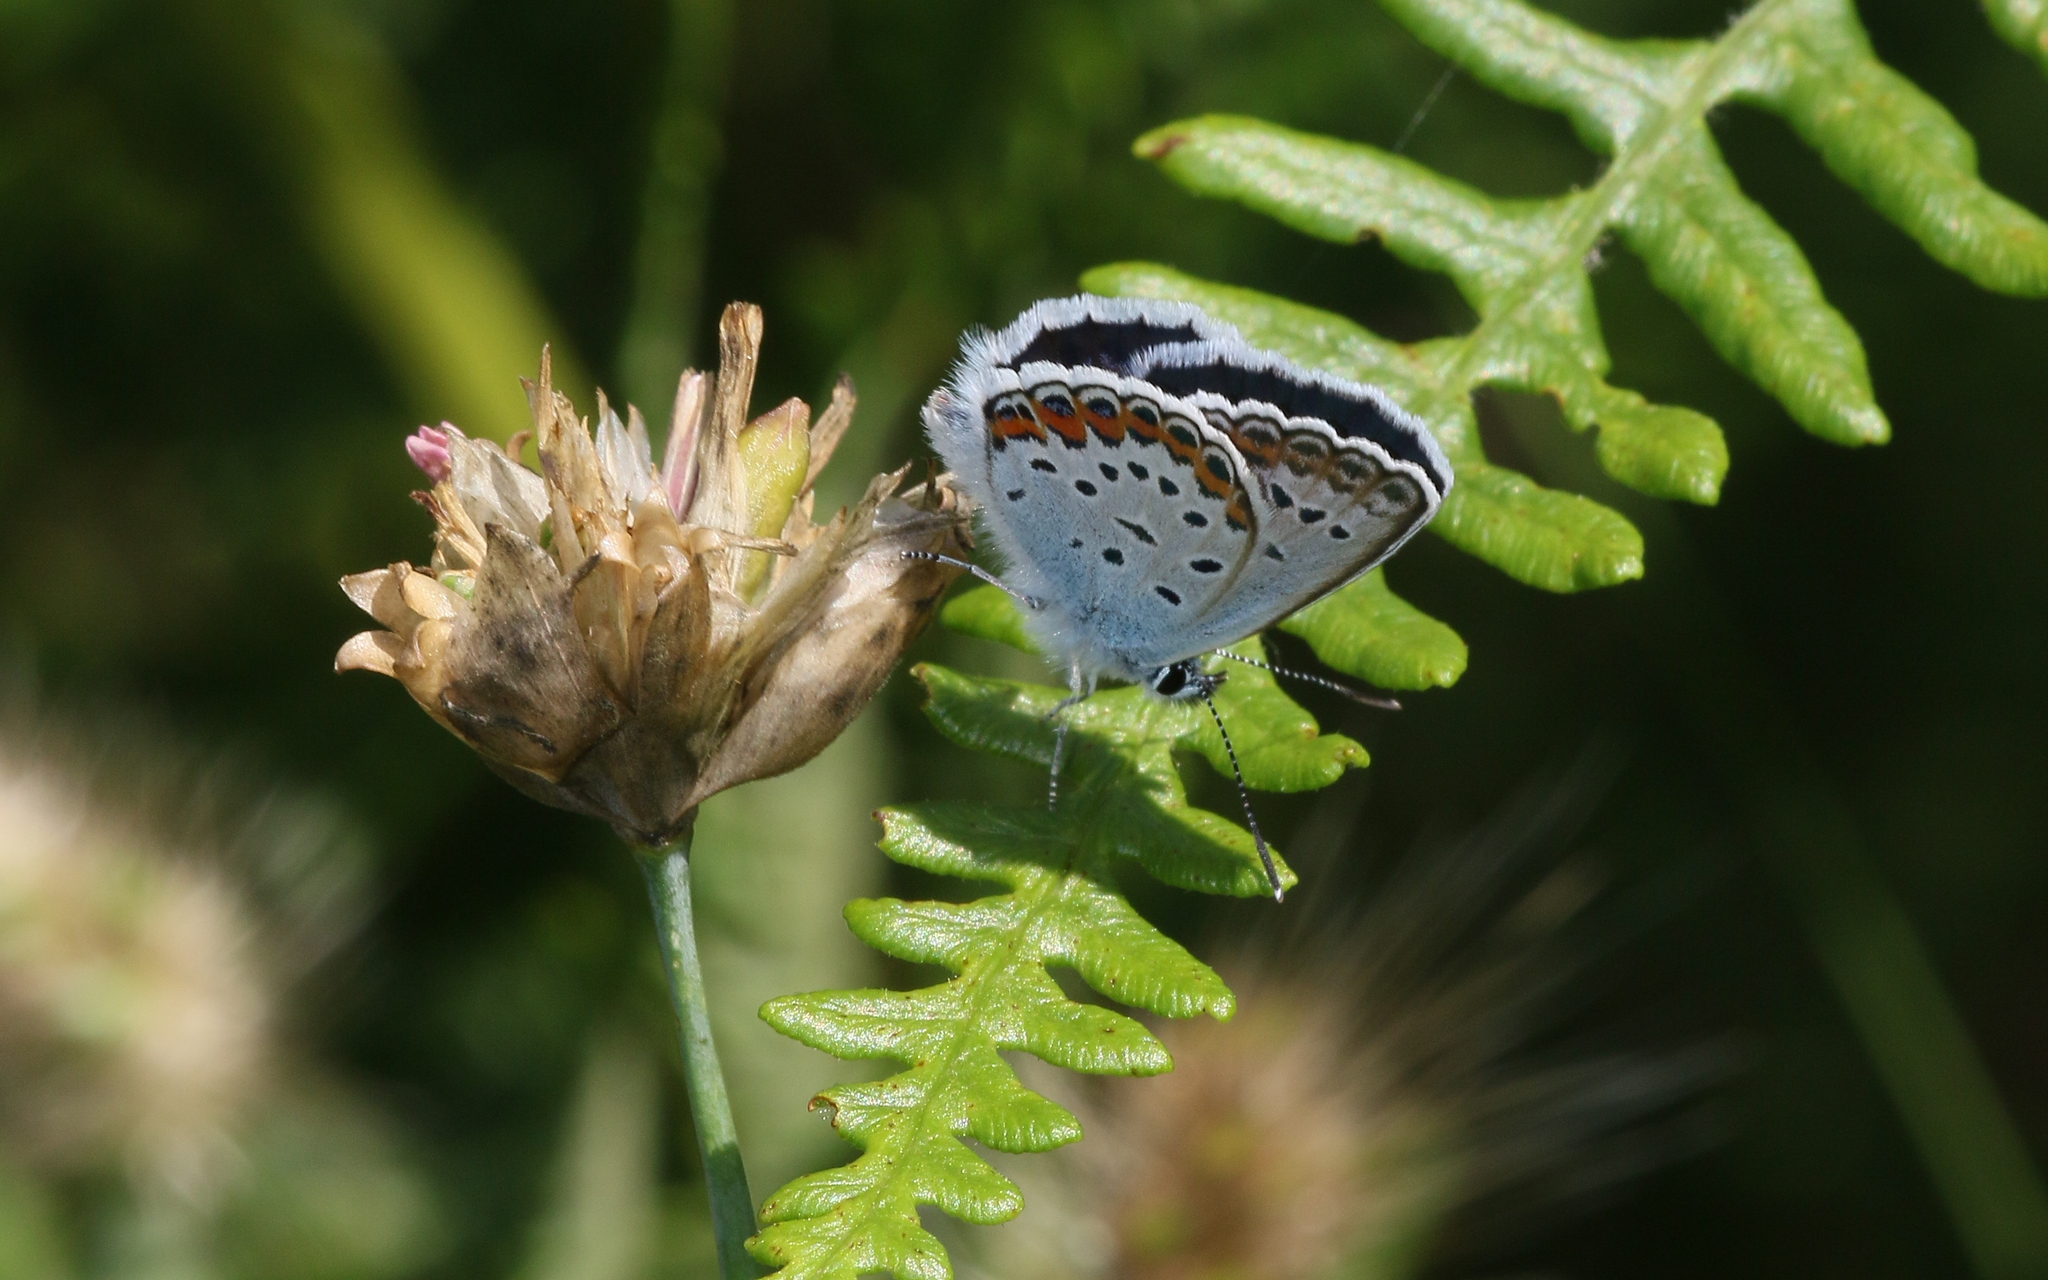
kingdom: Animalia
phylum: Arthropoda
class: Insecta
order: Lepidoptera
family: Lycaenidae
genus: Plebejus
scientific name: Plebejus argus
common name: Silver-studded blue
